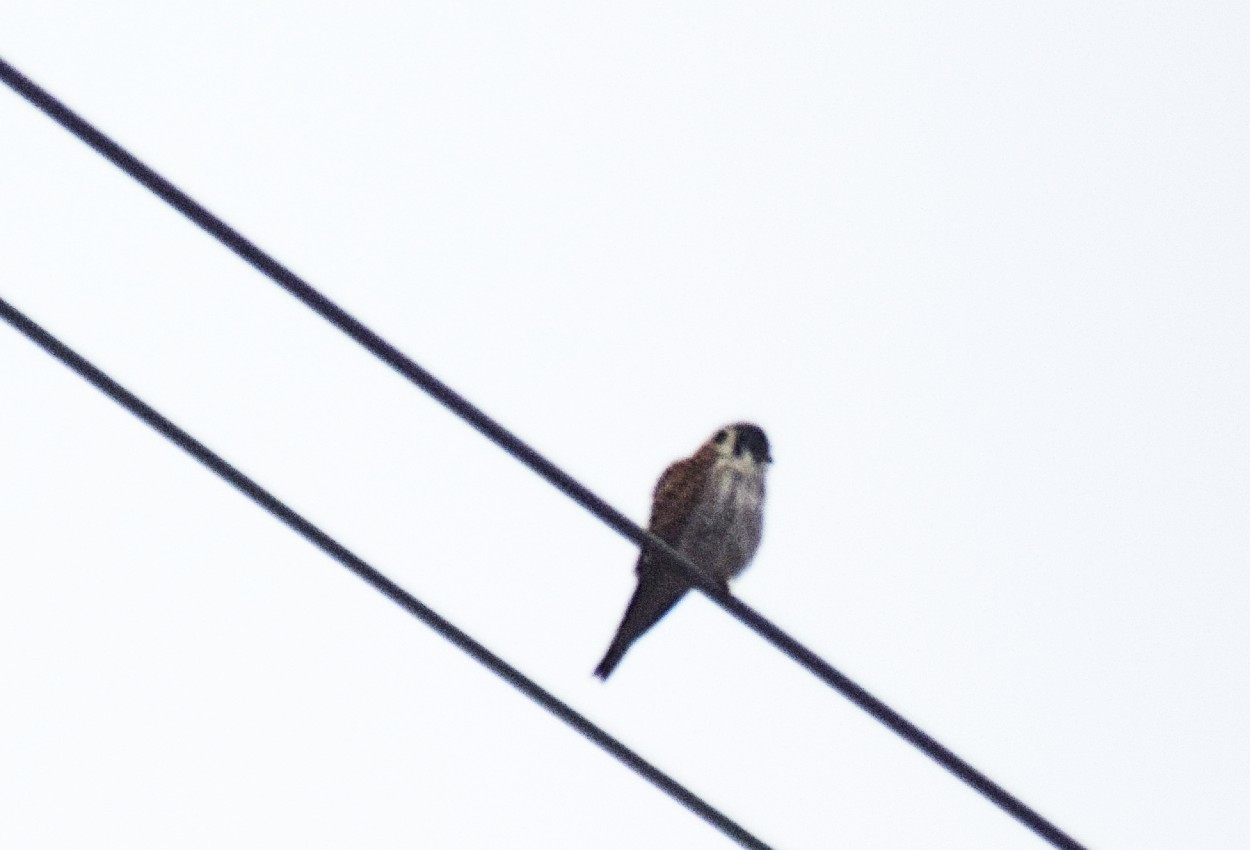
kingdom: Animalia
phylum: Chordata
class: Aves
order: Falconiformes
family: Falconidae
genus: Falco
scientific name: Falco sparverius
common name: American kestrel
